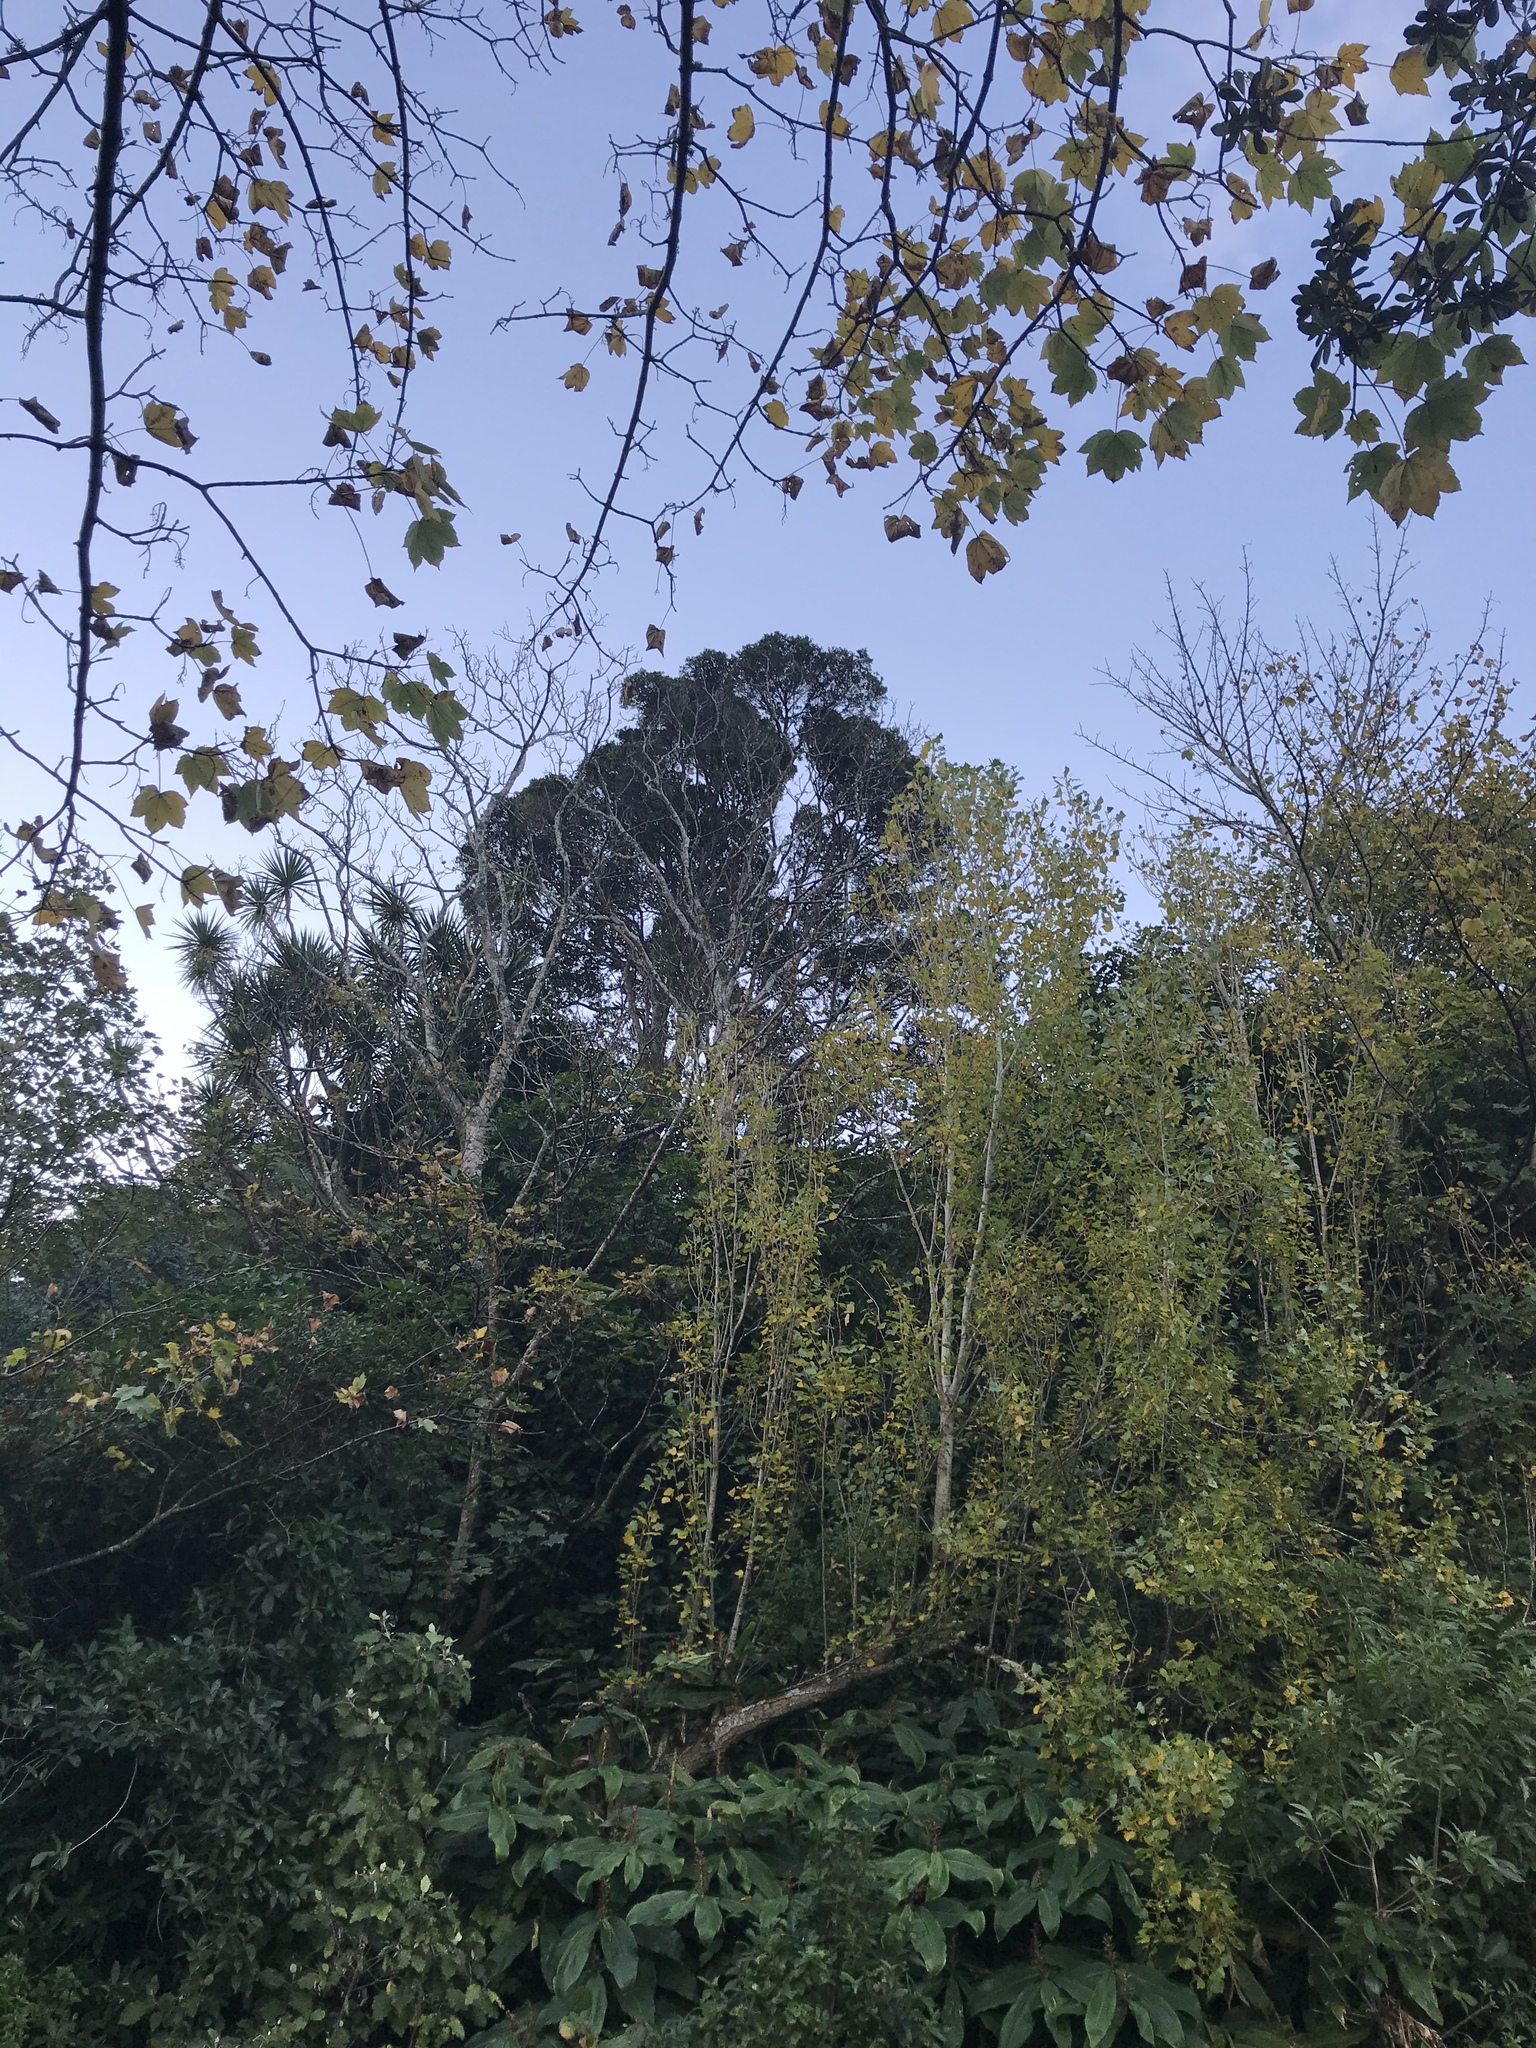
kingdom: Plantae
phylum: Tracheophyta
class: Magnoliopsida
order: Myrtales
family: Myrtaceae
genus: Metrosideros
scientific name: Metrosideros robusta
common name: Northern rata
